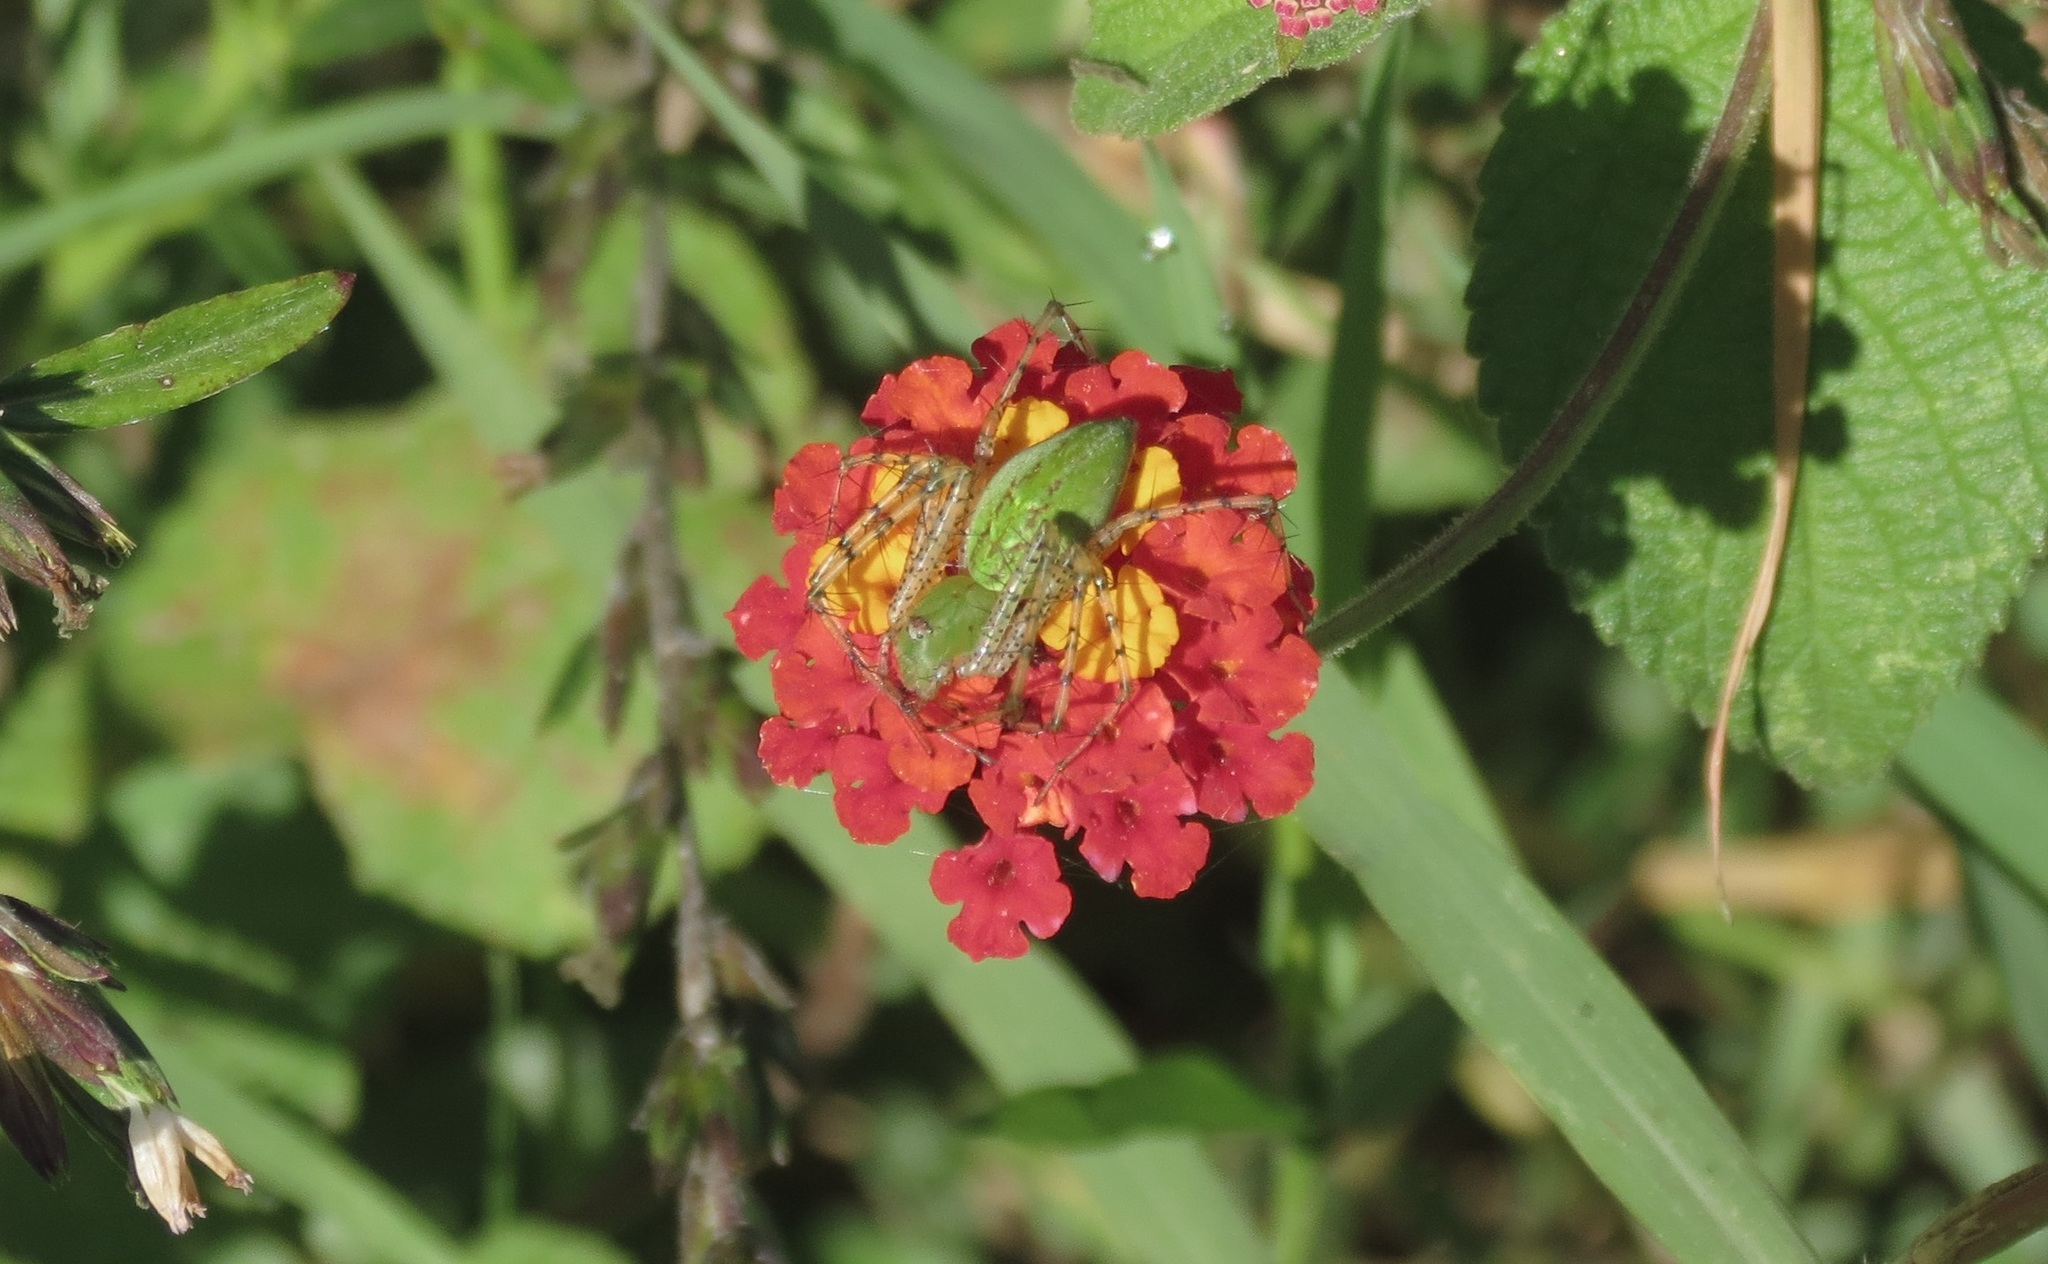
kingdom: Animalia
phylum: Arthropoda
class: Arachnida
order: Araneae
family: Oxyopidae
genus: Peucetia
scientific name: Peucetia viridans
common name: Lynx spiders
